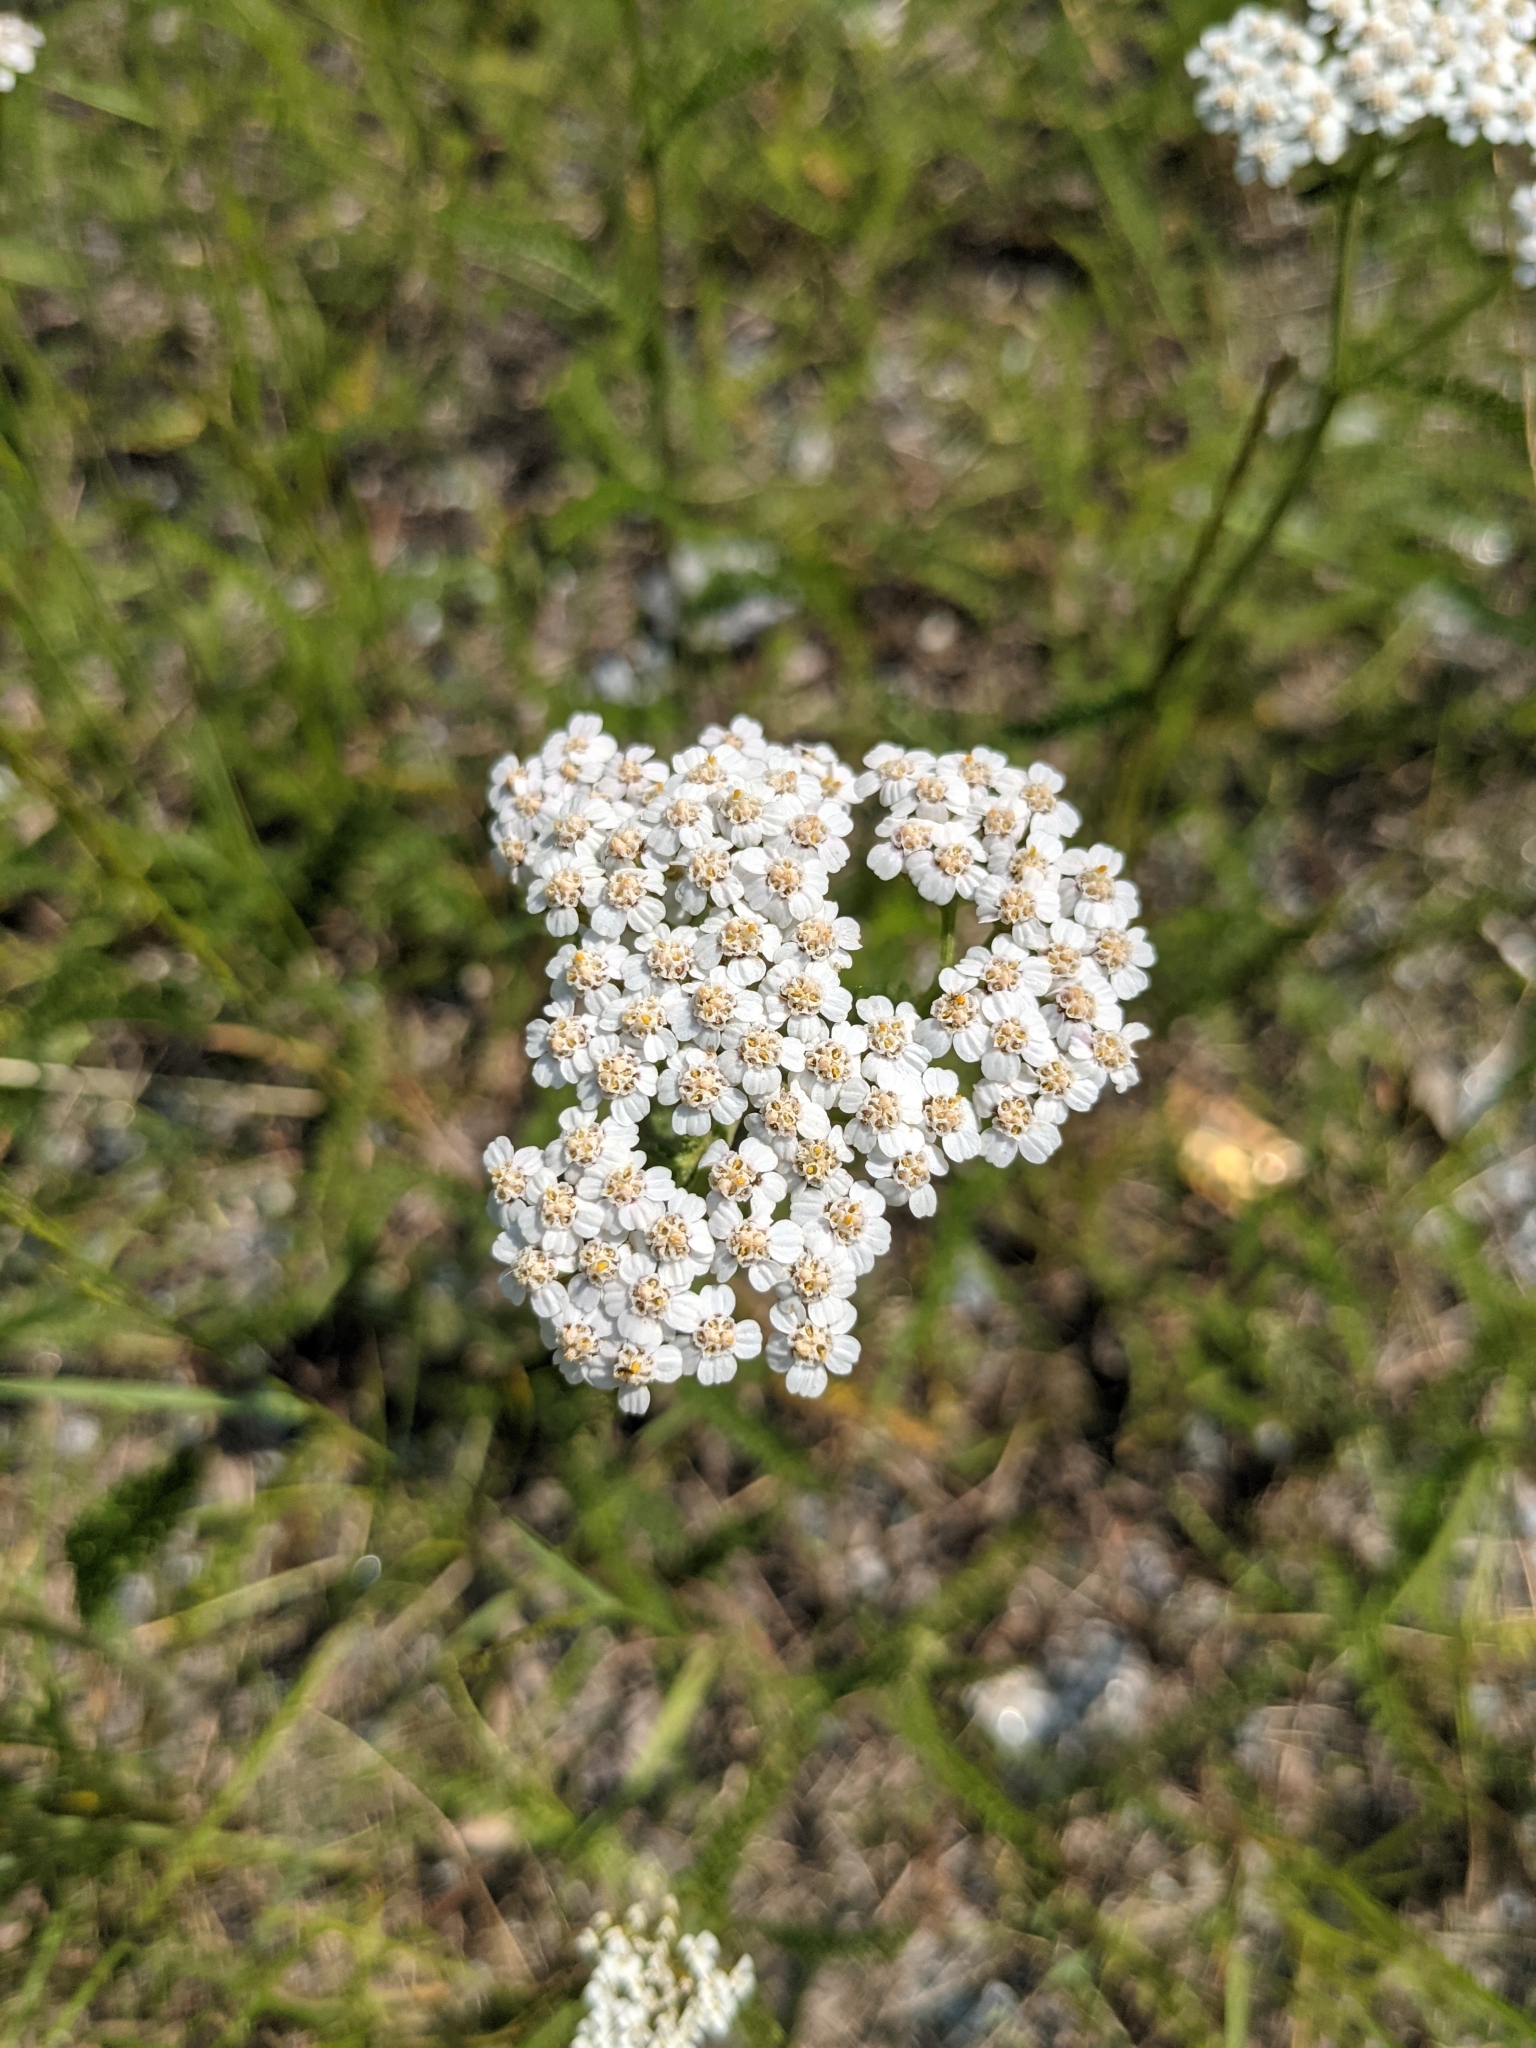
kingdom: Plantae
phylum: Tracheophyta
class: Magnoliopsida
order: Asterales
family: Asteraceae
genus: Achillea
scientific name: Achillea millefolium
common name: Yarrow
